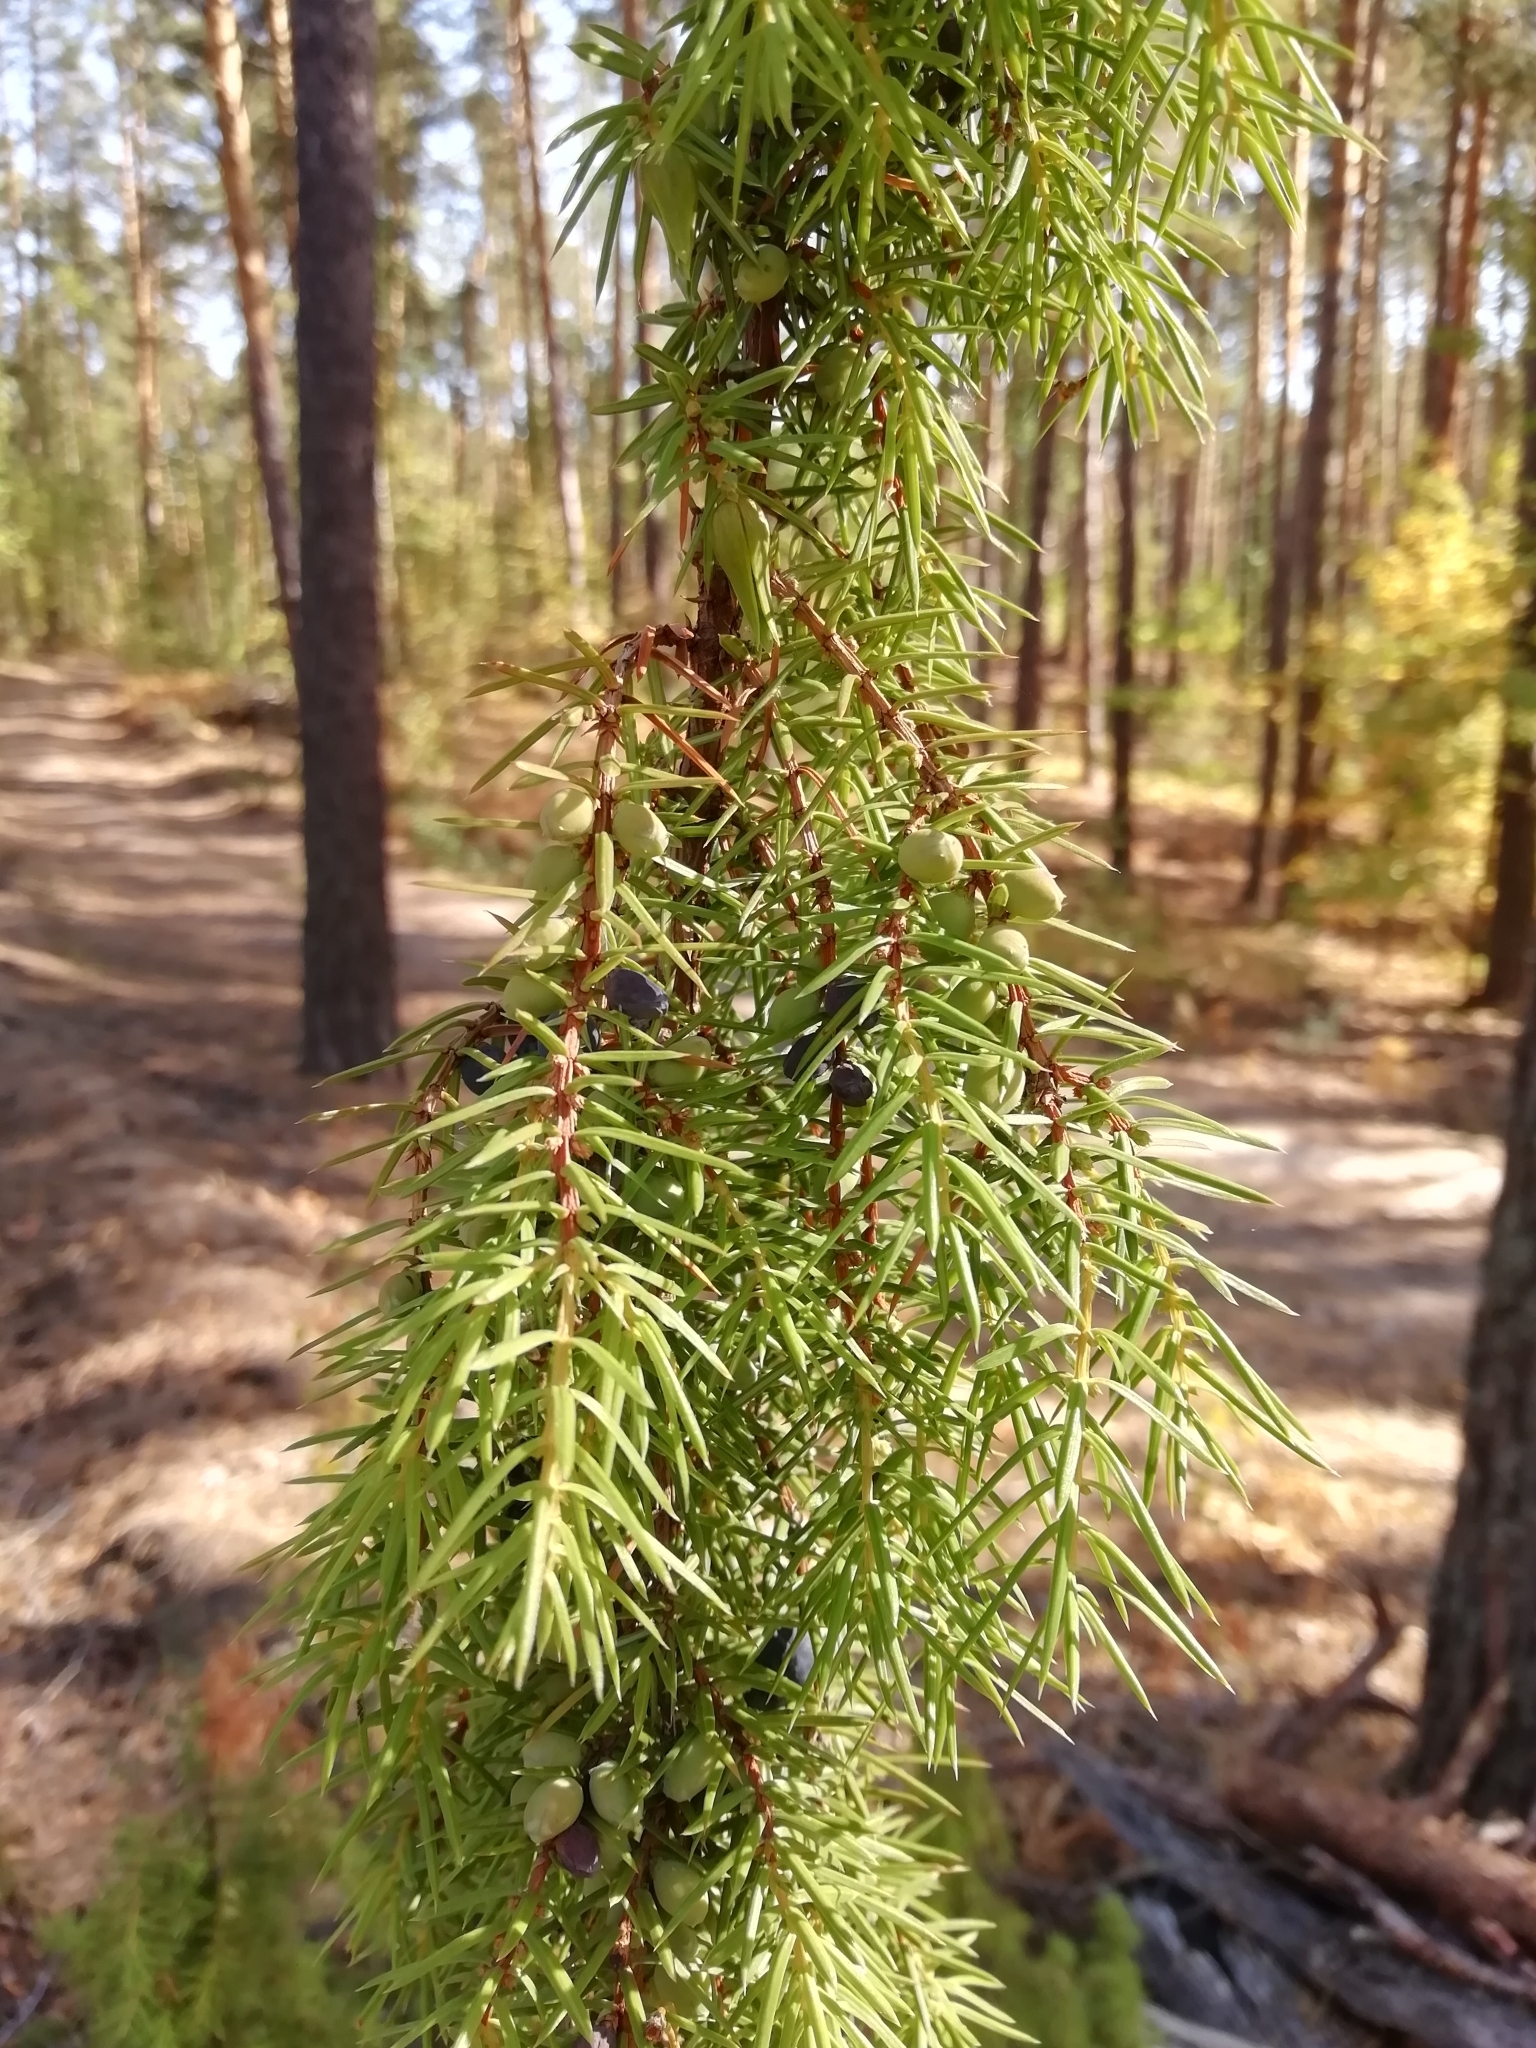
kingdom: Plantae
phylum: Tracheophyta
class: Pinopsida
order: Pinales
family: Cupressaceae
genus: Juniperus
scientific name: Juniperus communis
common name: Common juniper
